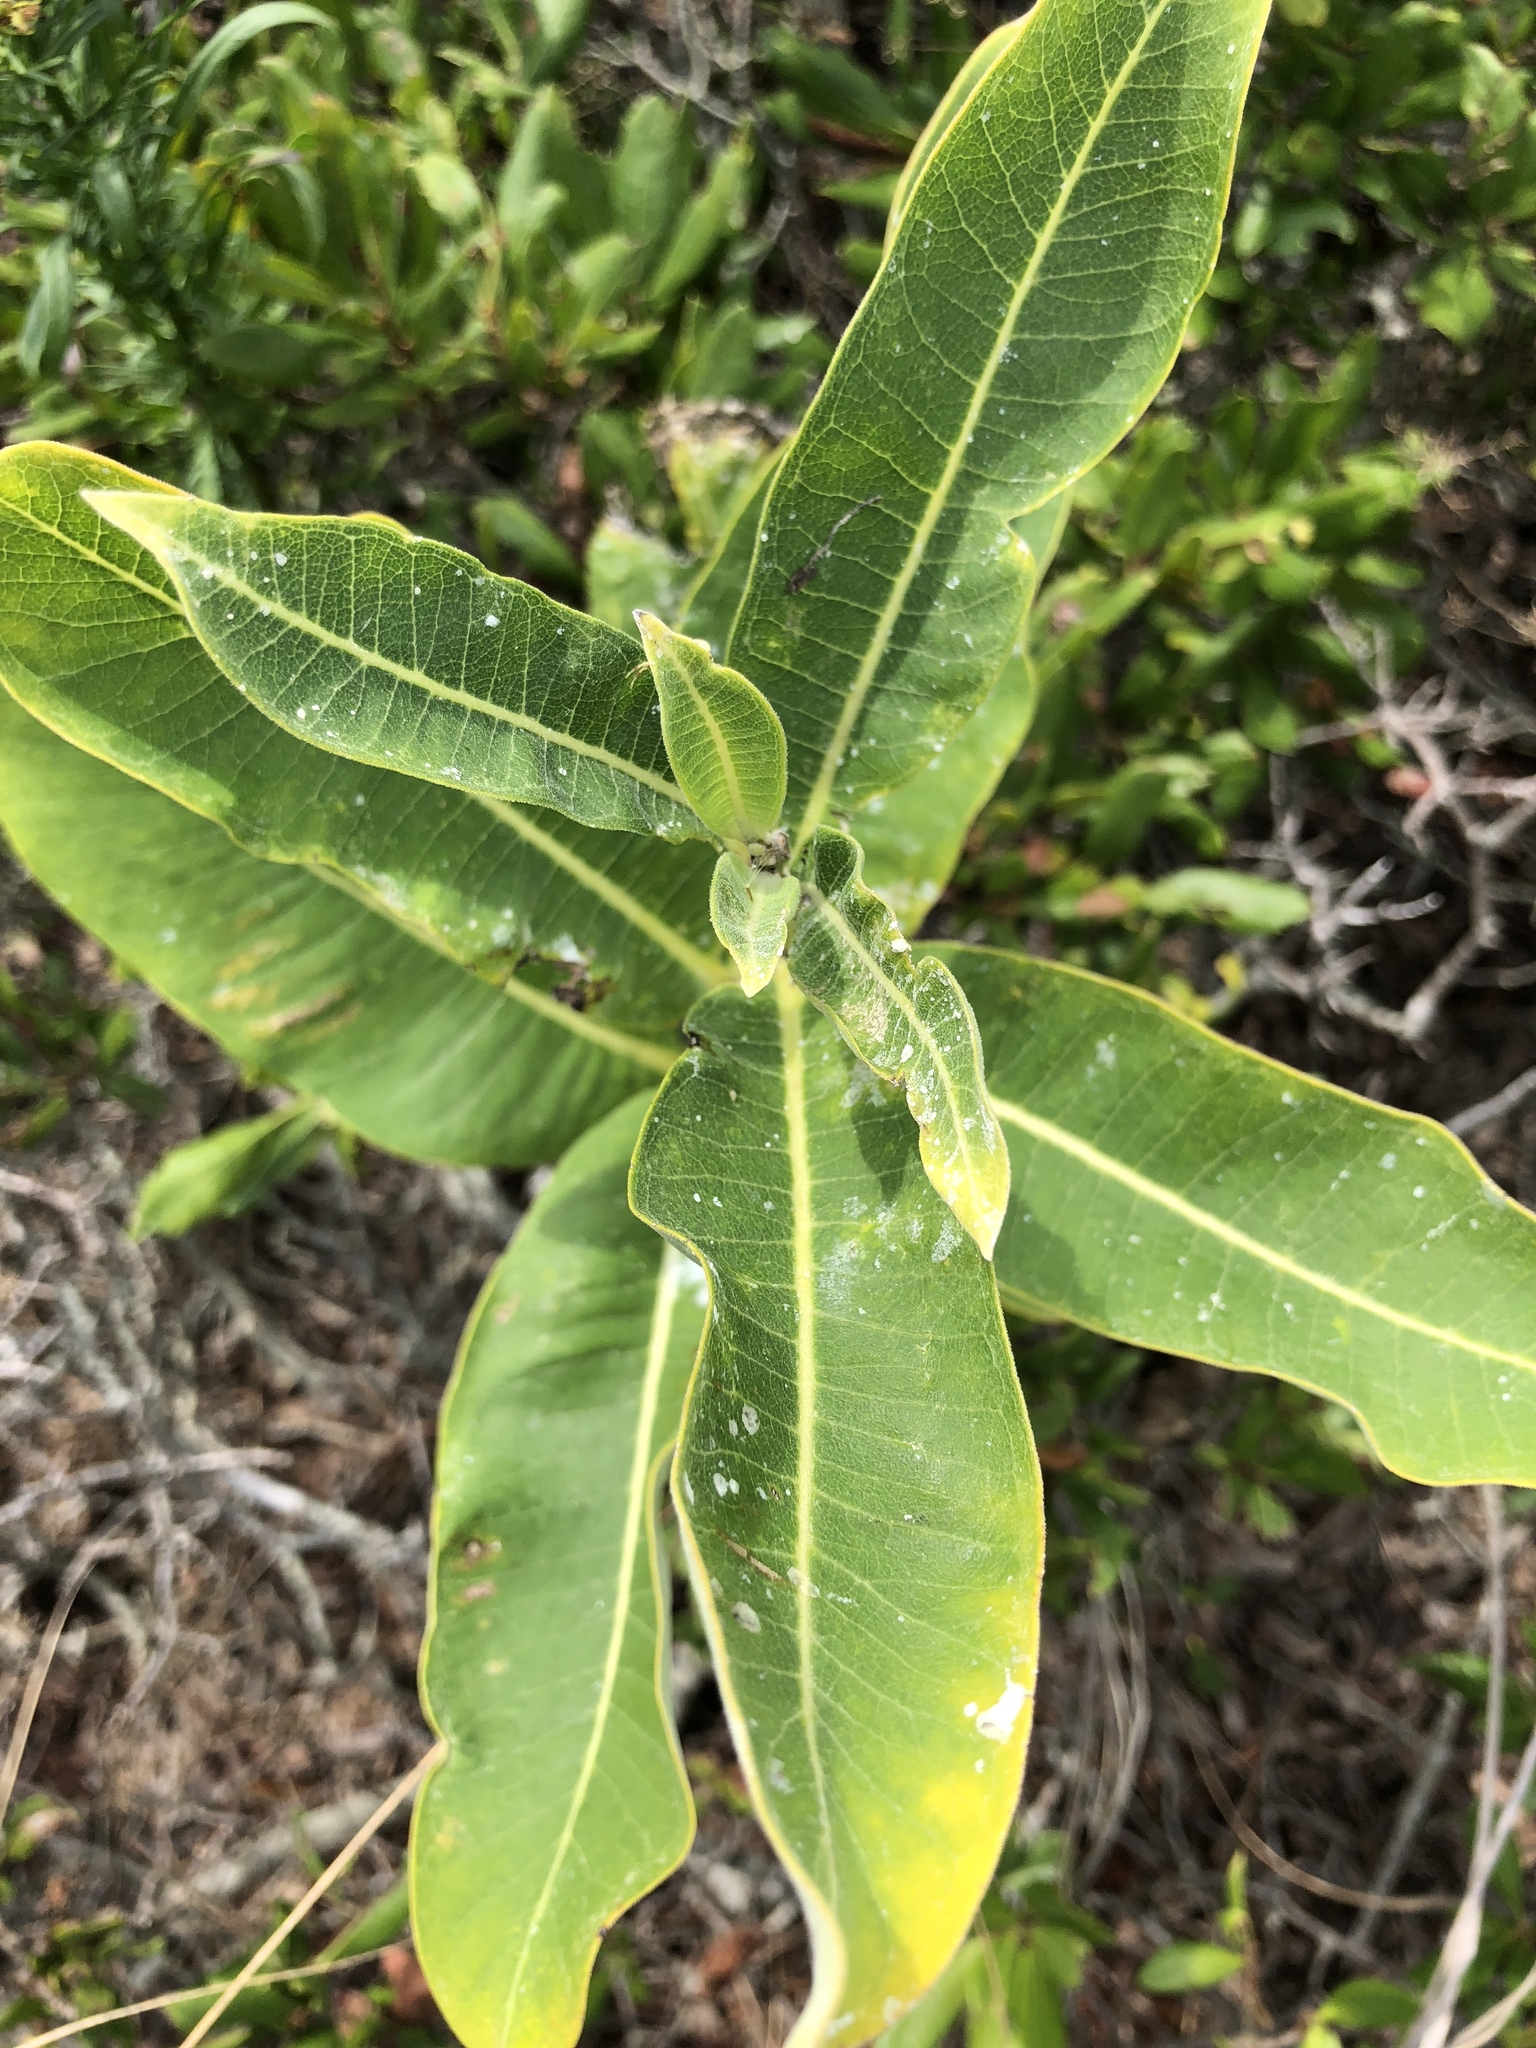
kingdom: Plantae
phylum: Tracheophyta
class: Magnoliopsida
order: Gentianales
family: Apocynaceae
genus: Asclepias
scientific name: Asclepias syriaca
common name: Common milkweed
